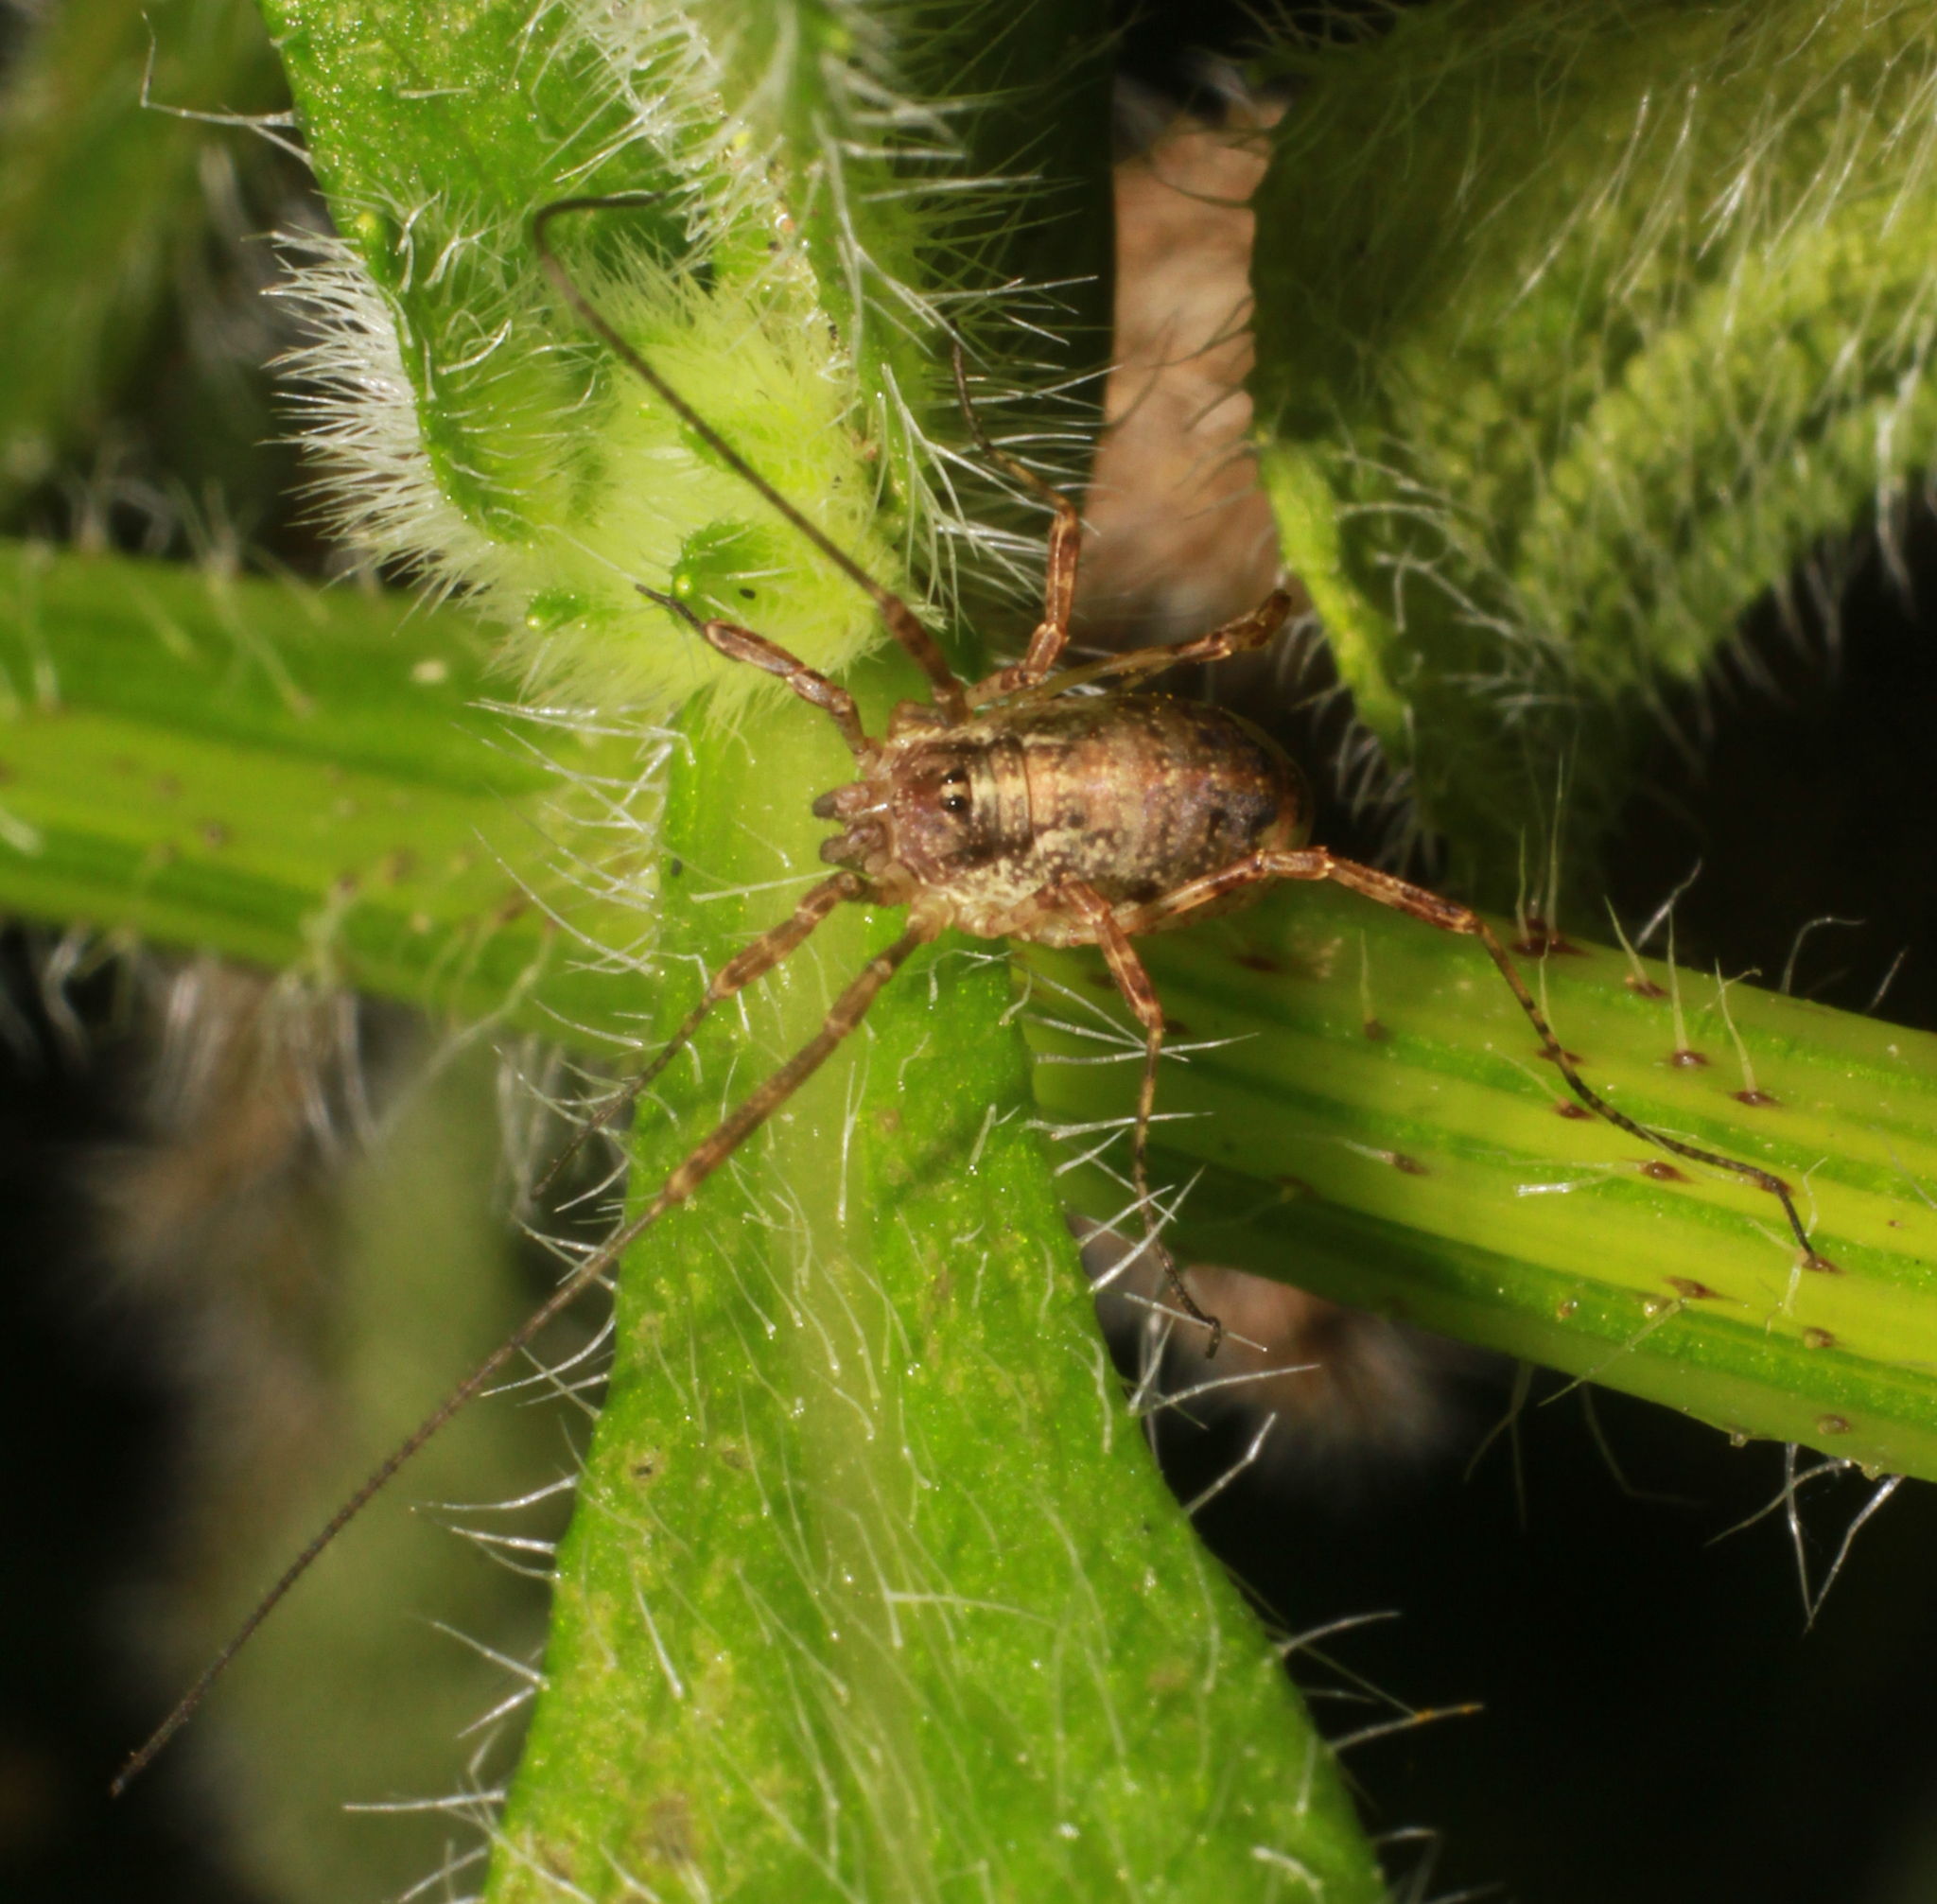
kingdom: Animalia
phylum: Arthropoda
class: Arachnida
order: Opiliones
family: Phalangiidae
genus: Paroligolophus
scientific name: Paroligolophus agrestis
